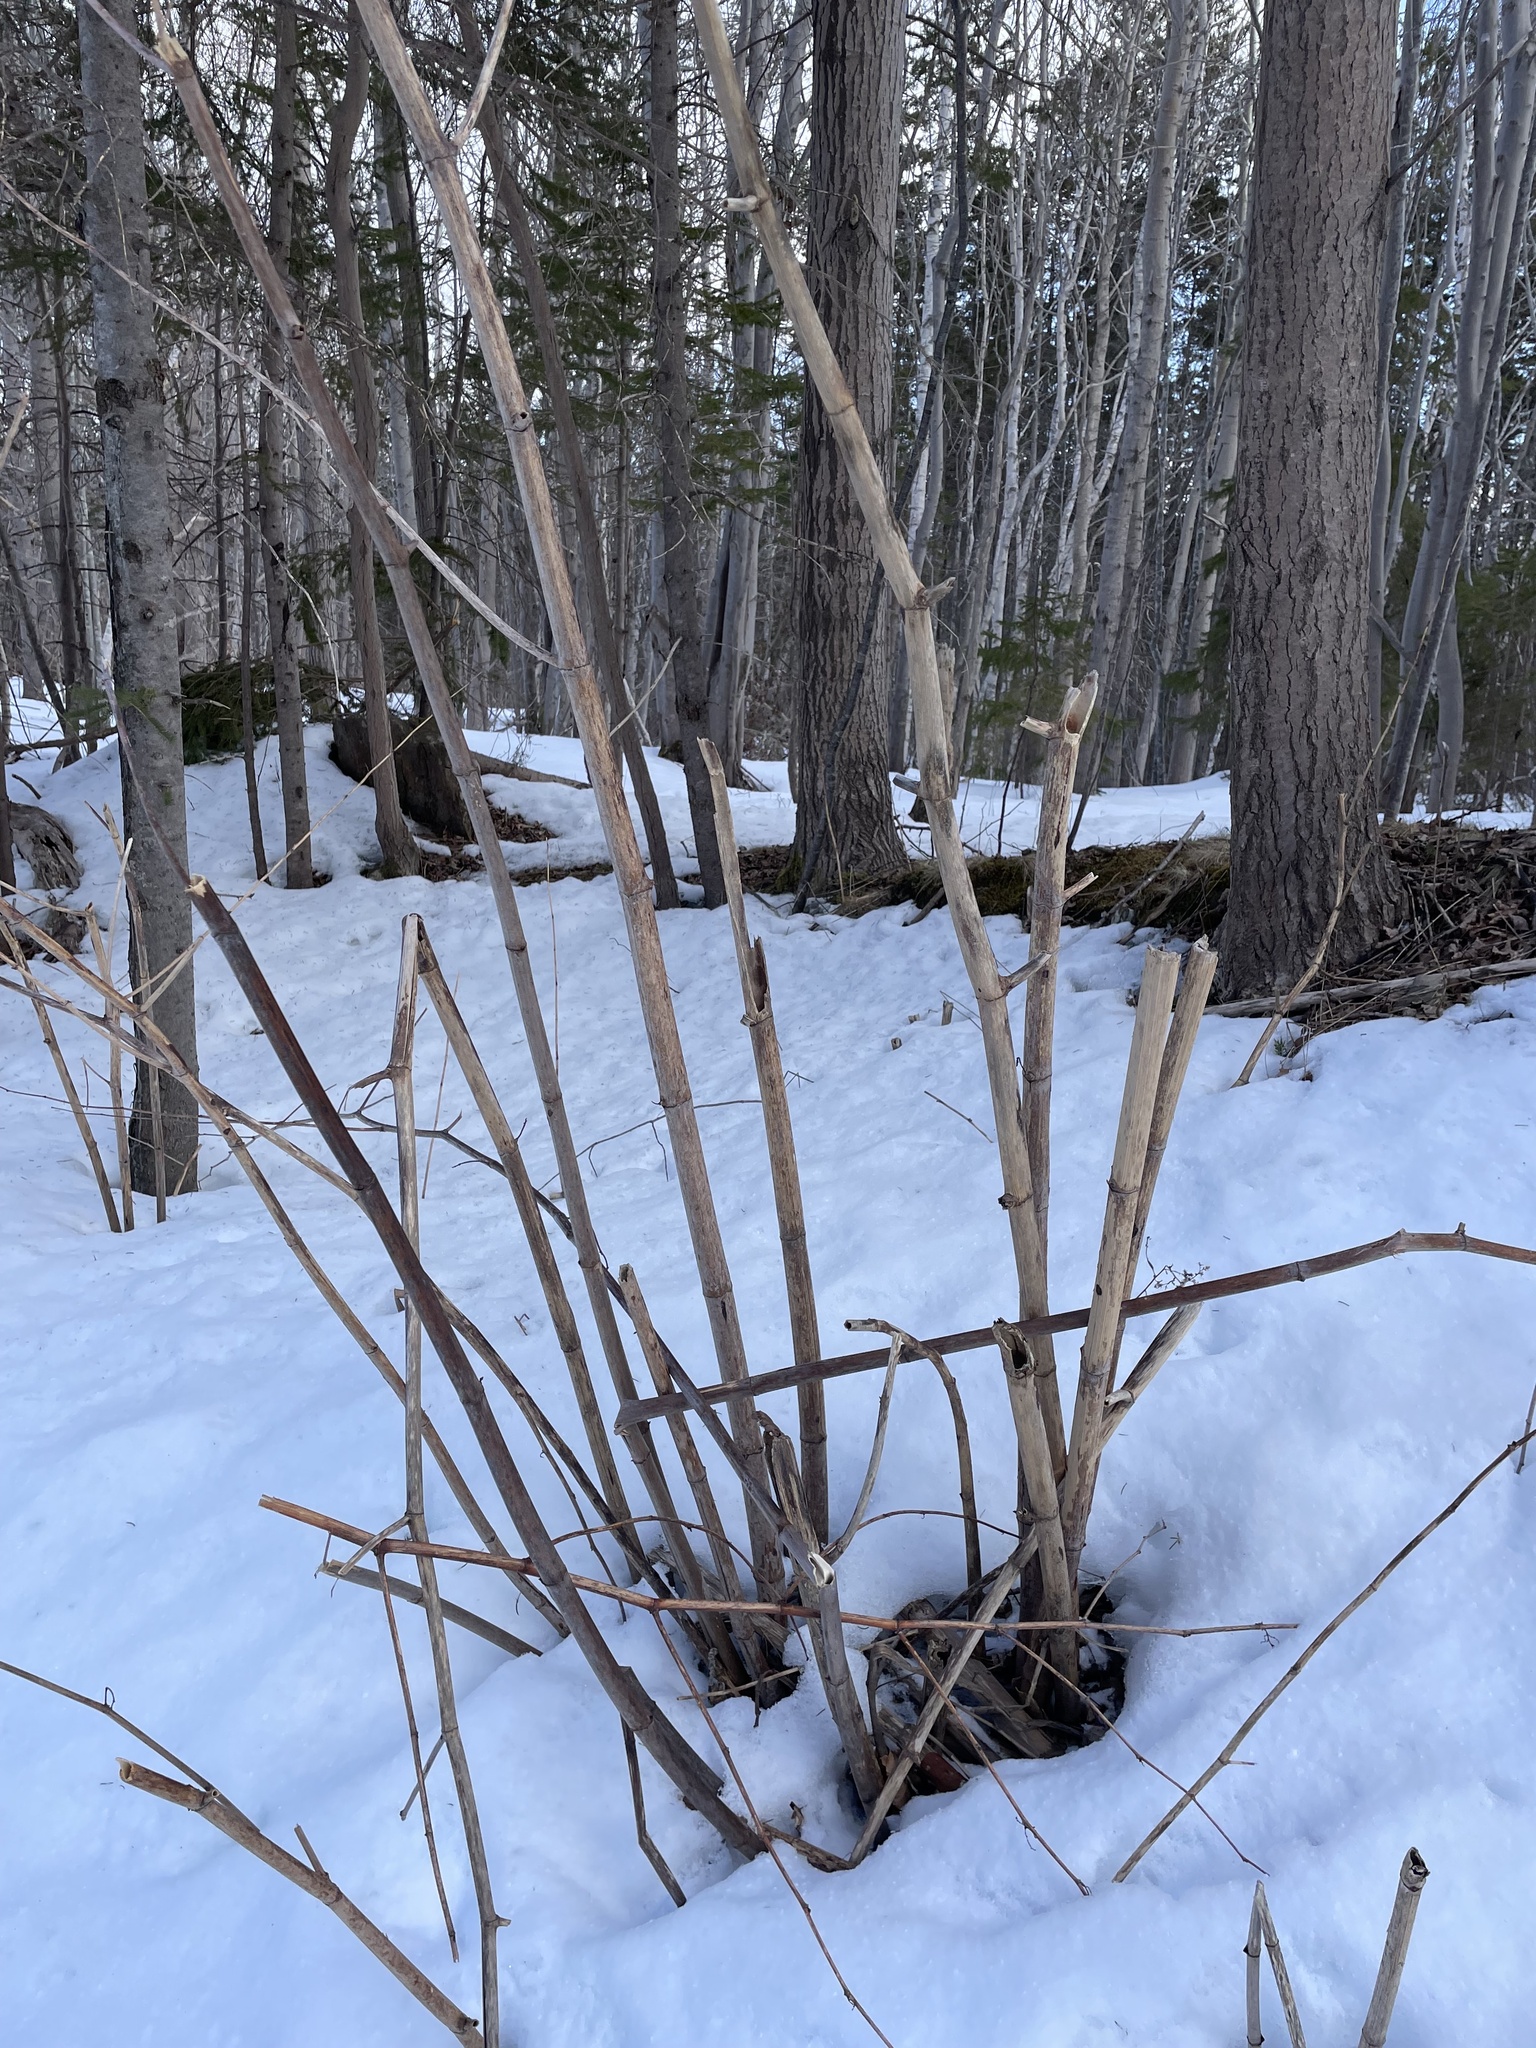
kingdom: Plantae
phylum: Tracheophyta
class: Magnoliopsida
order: Caryophyllales
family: Polygonaceae
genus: Reynoutria
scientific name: Reynoutria japonica
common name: Japanese knotweed
